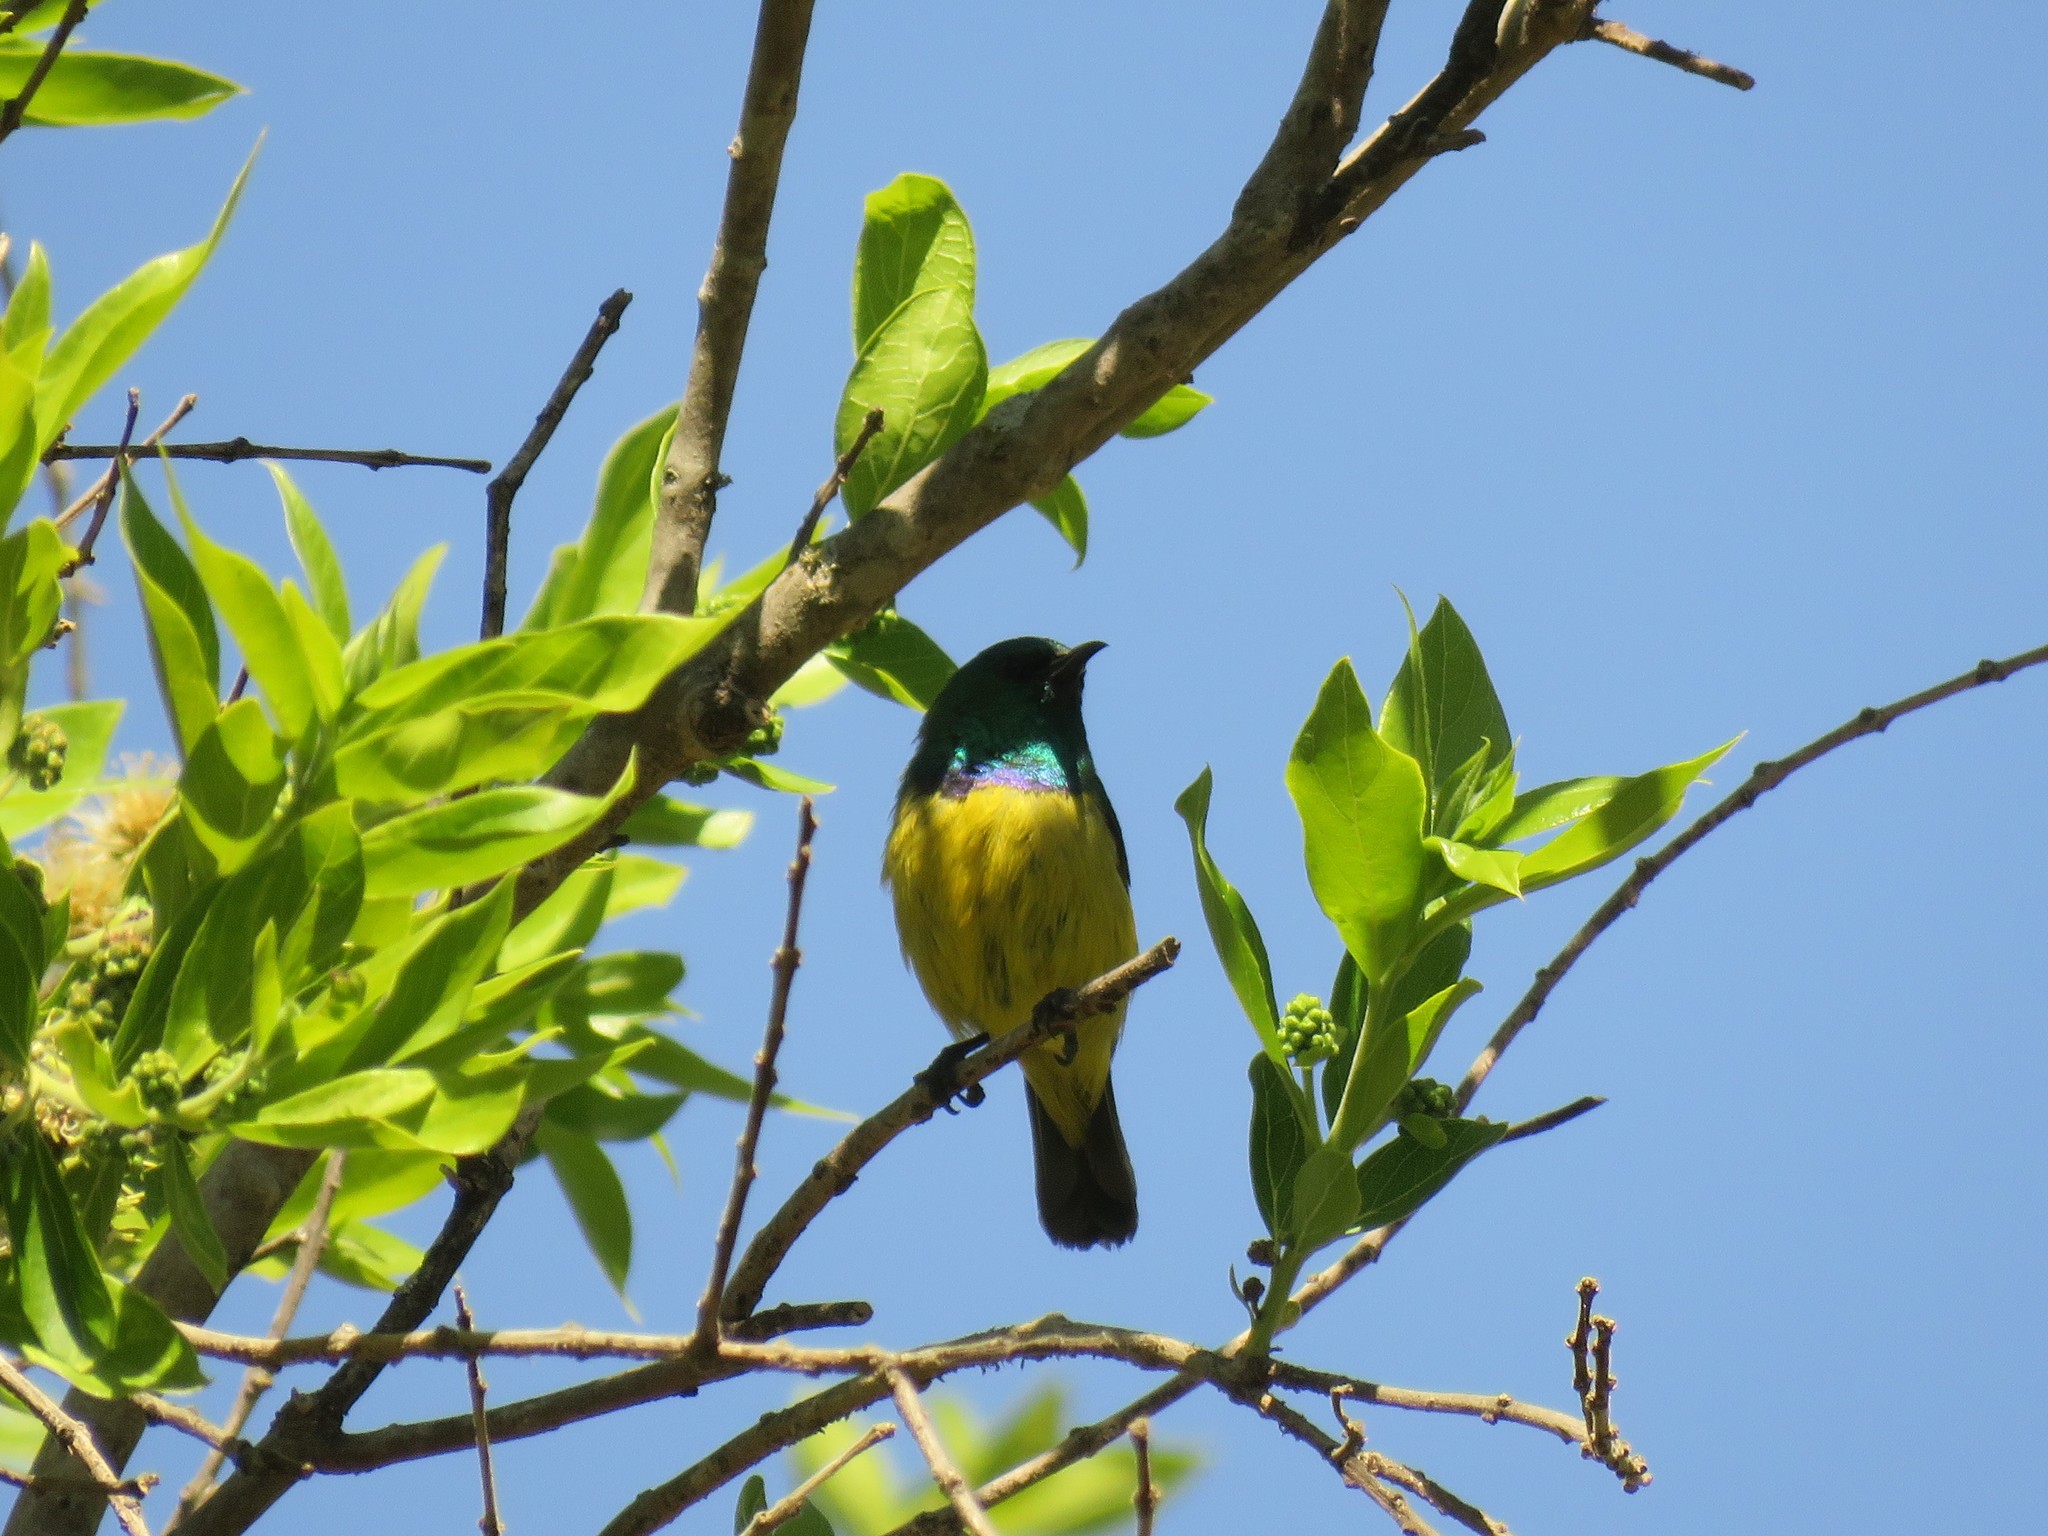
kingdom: Animalia
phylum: Chordata
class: Aves
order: Passeriformes
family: Nectariniidae
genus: Hedydipna
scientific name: Hedydipna collaris
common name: Collared sunbird
